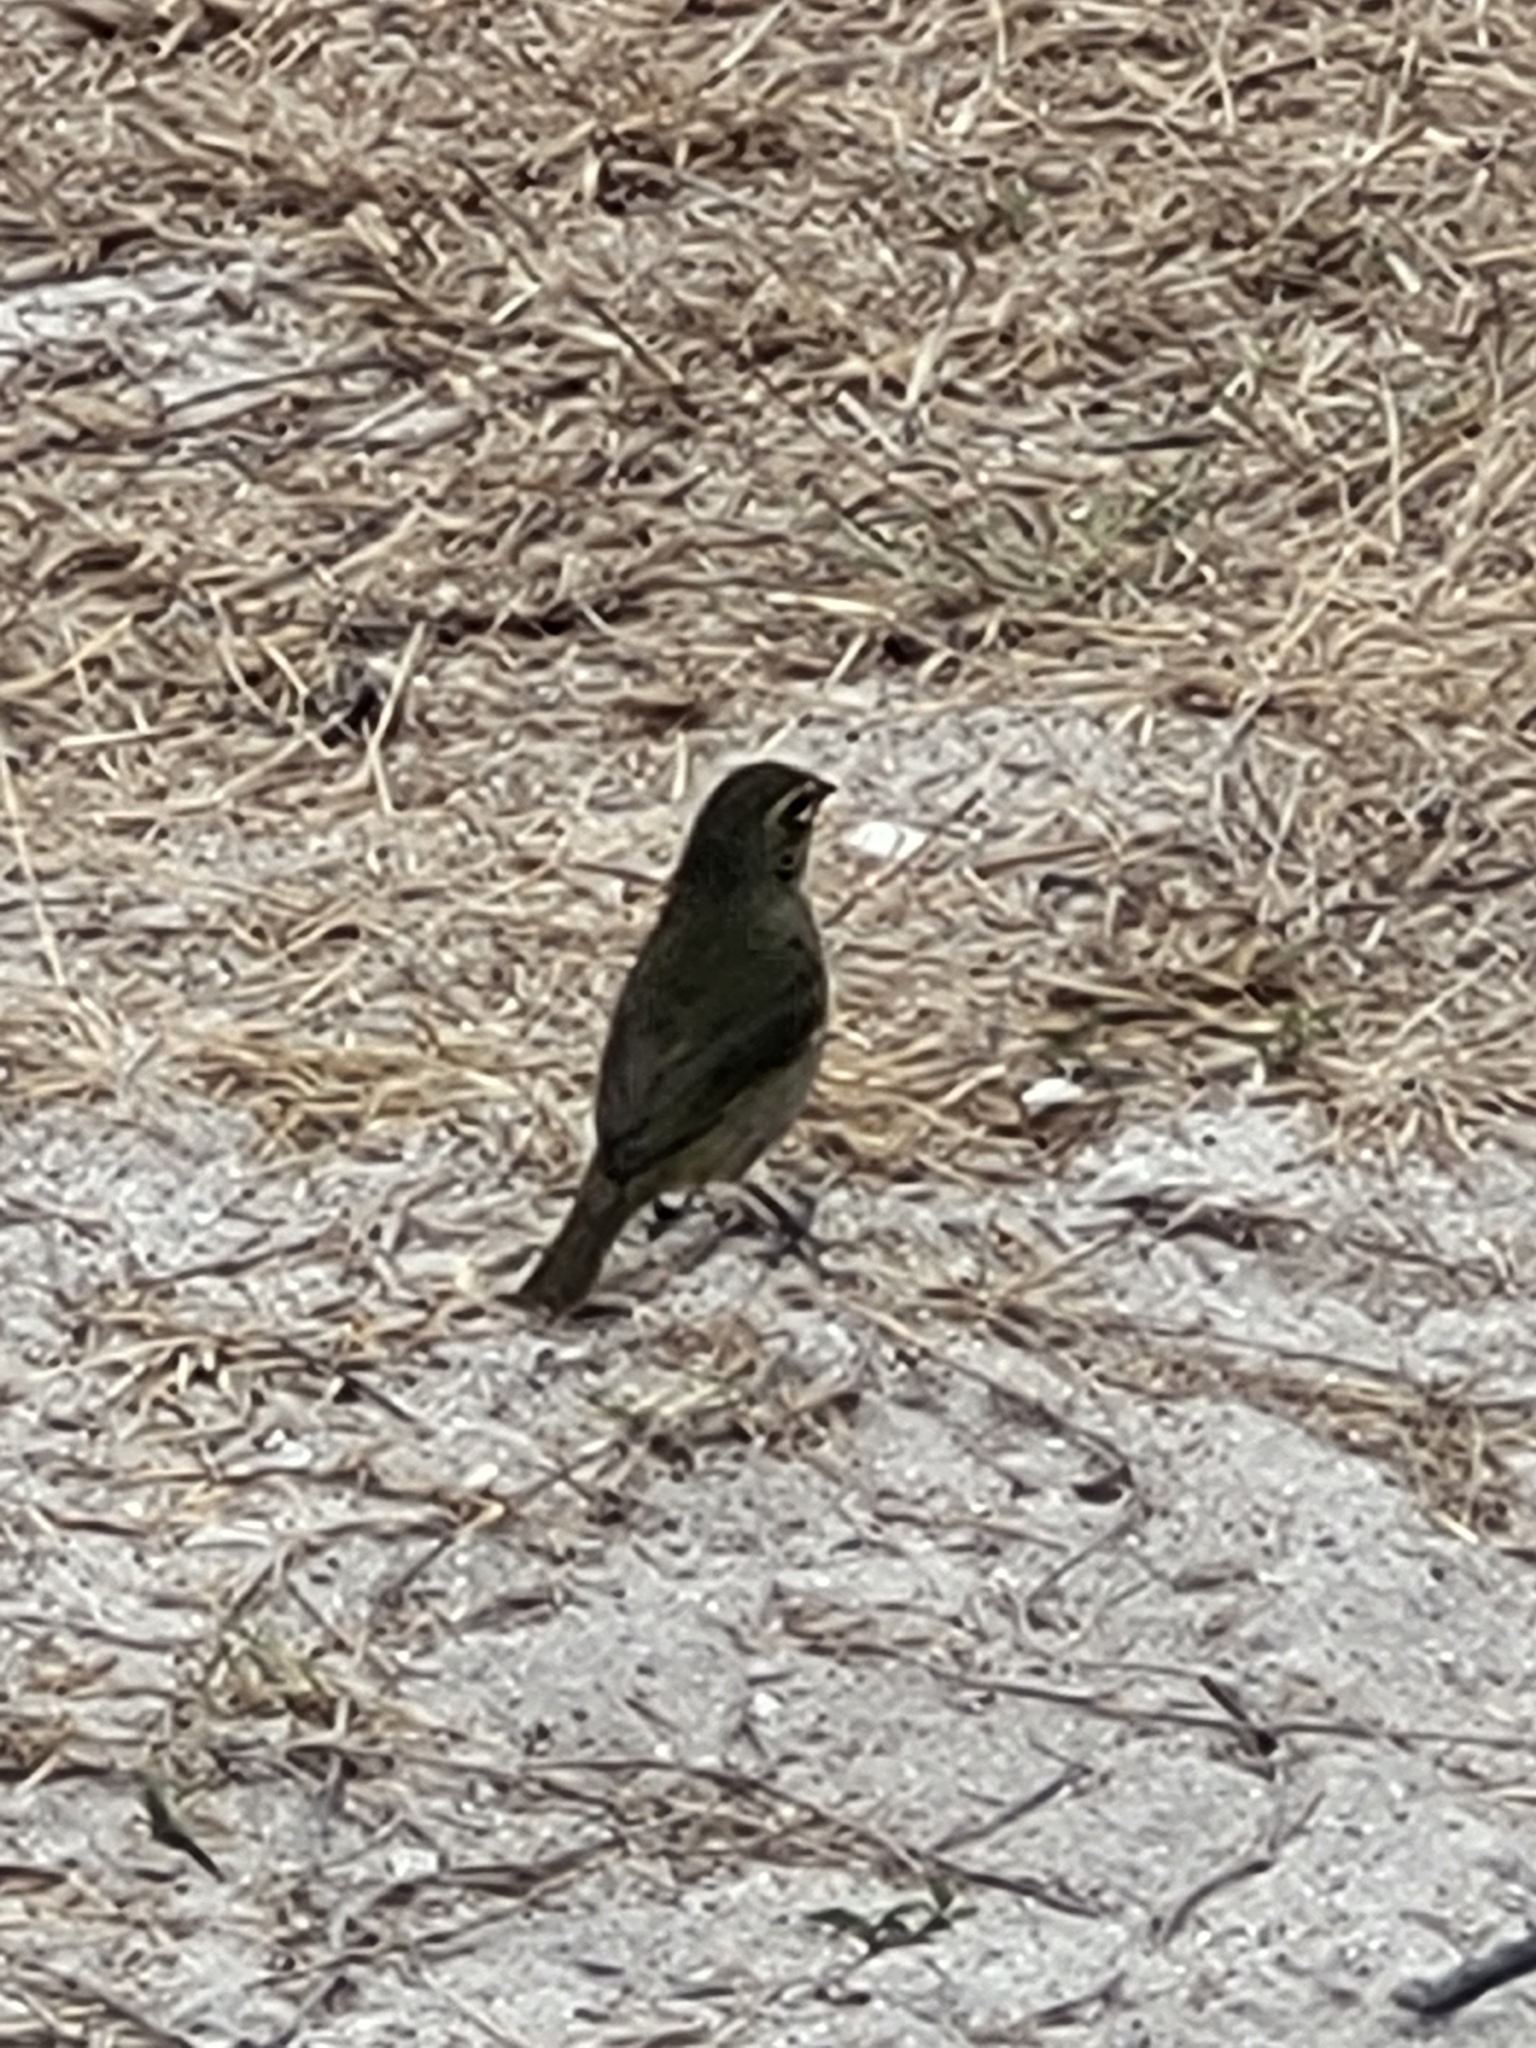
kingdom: Animalia
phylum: Chordata
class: Aves
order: Passeriformes
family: Thraupidae
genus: Tiaris
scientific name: Tiaris olivaceus
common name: Yellow-faced grassquit
